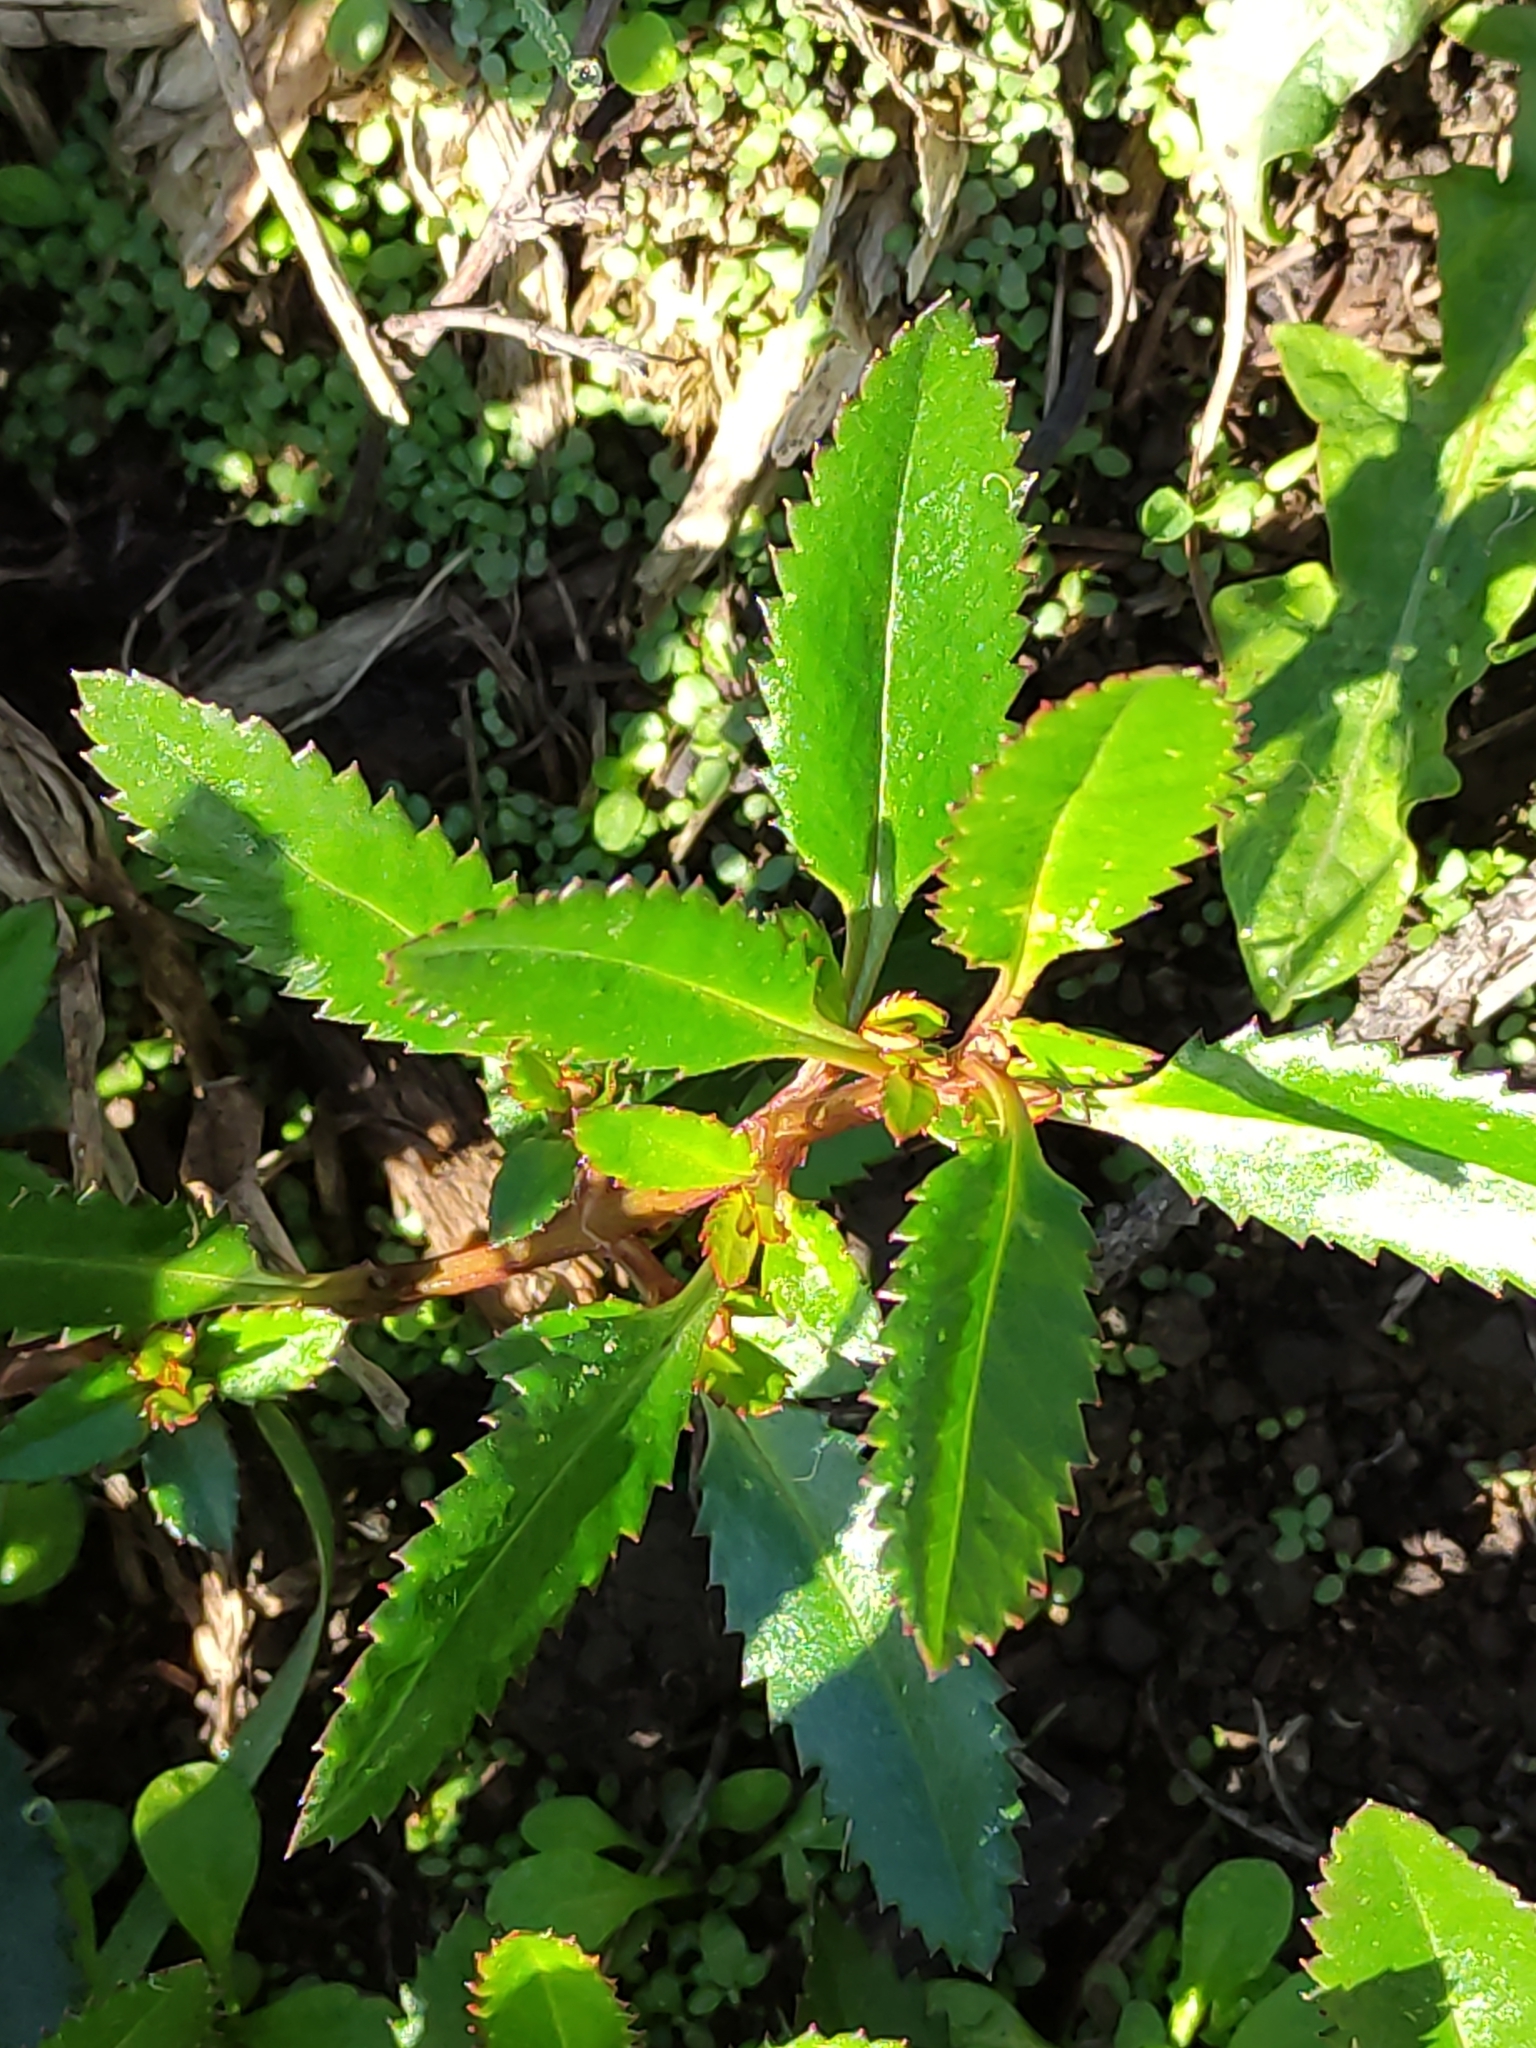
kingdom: Plantae
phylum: Tracheophyta
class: Magnoliopsida
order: Saxifragales
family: Haloragaceae
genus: Haloragis
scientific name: Haloragis erecta
